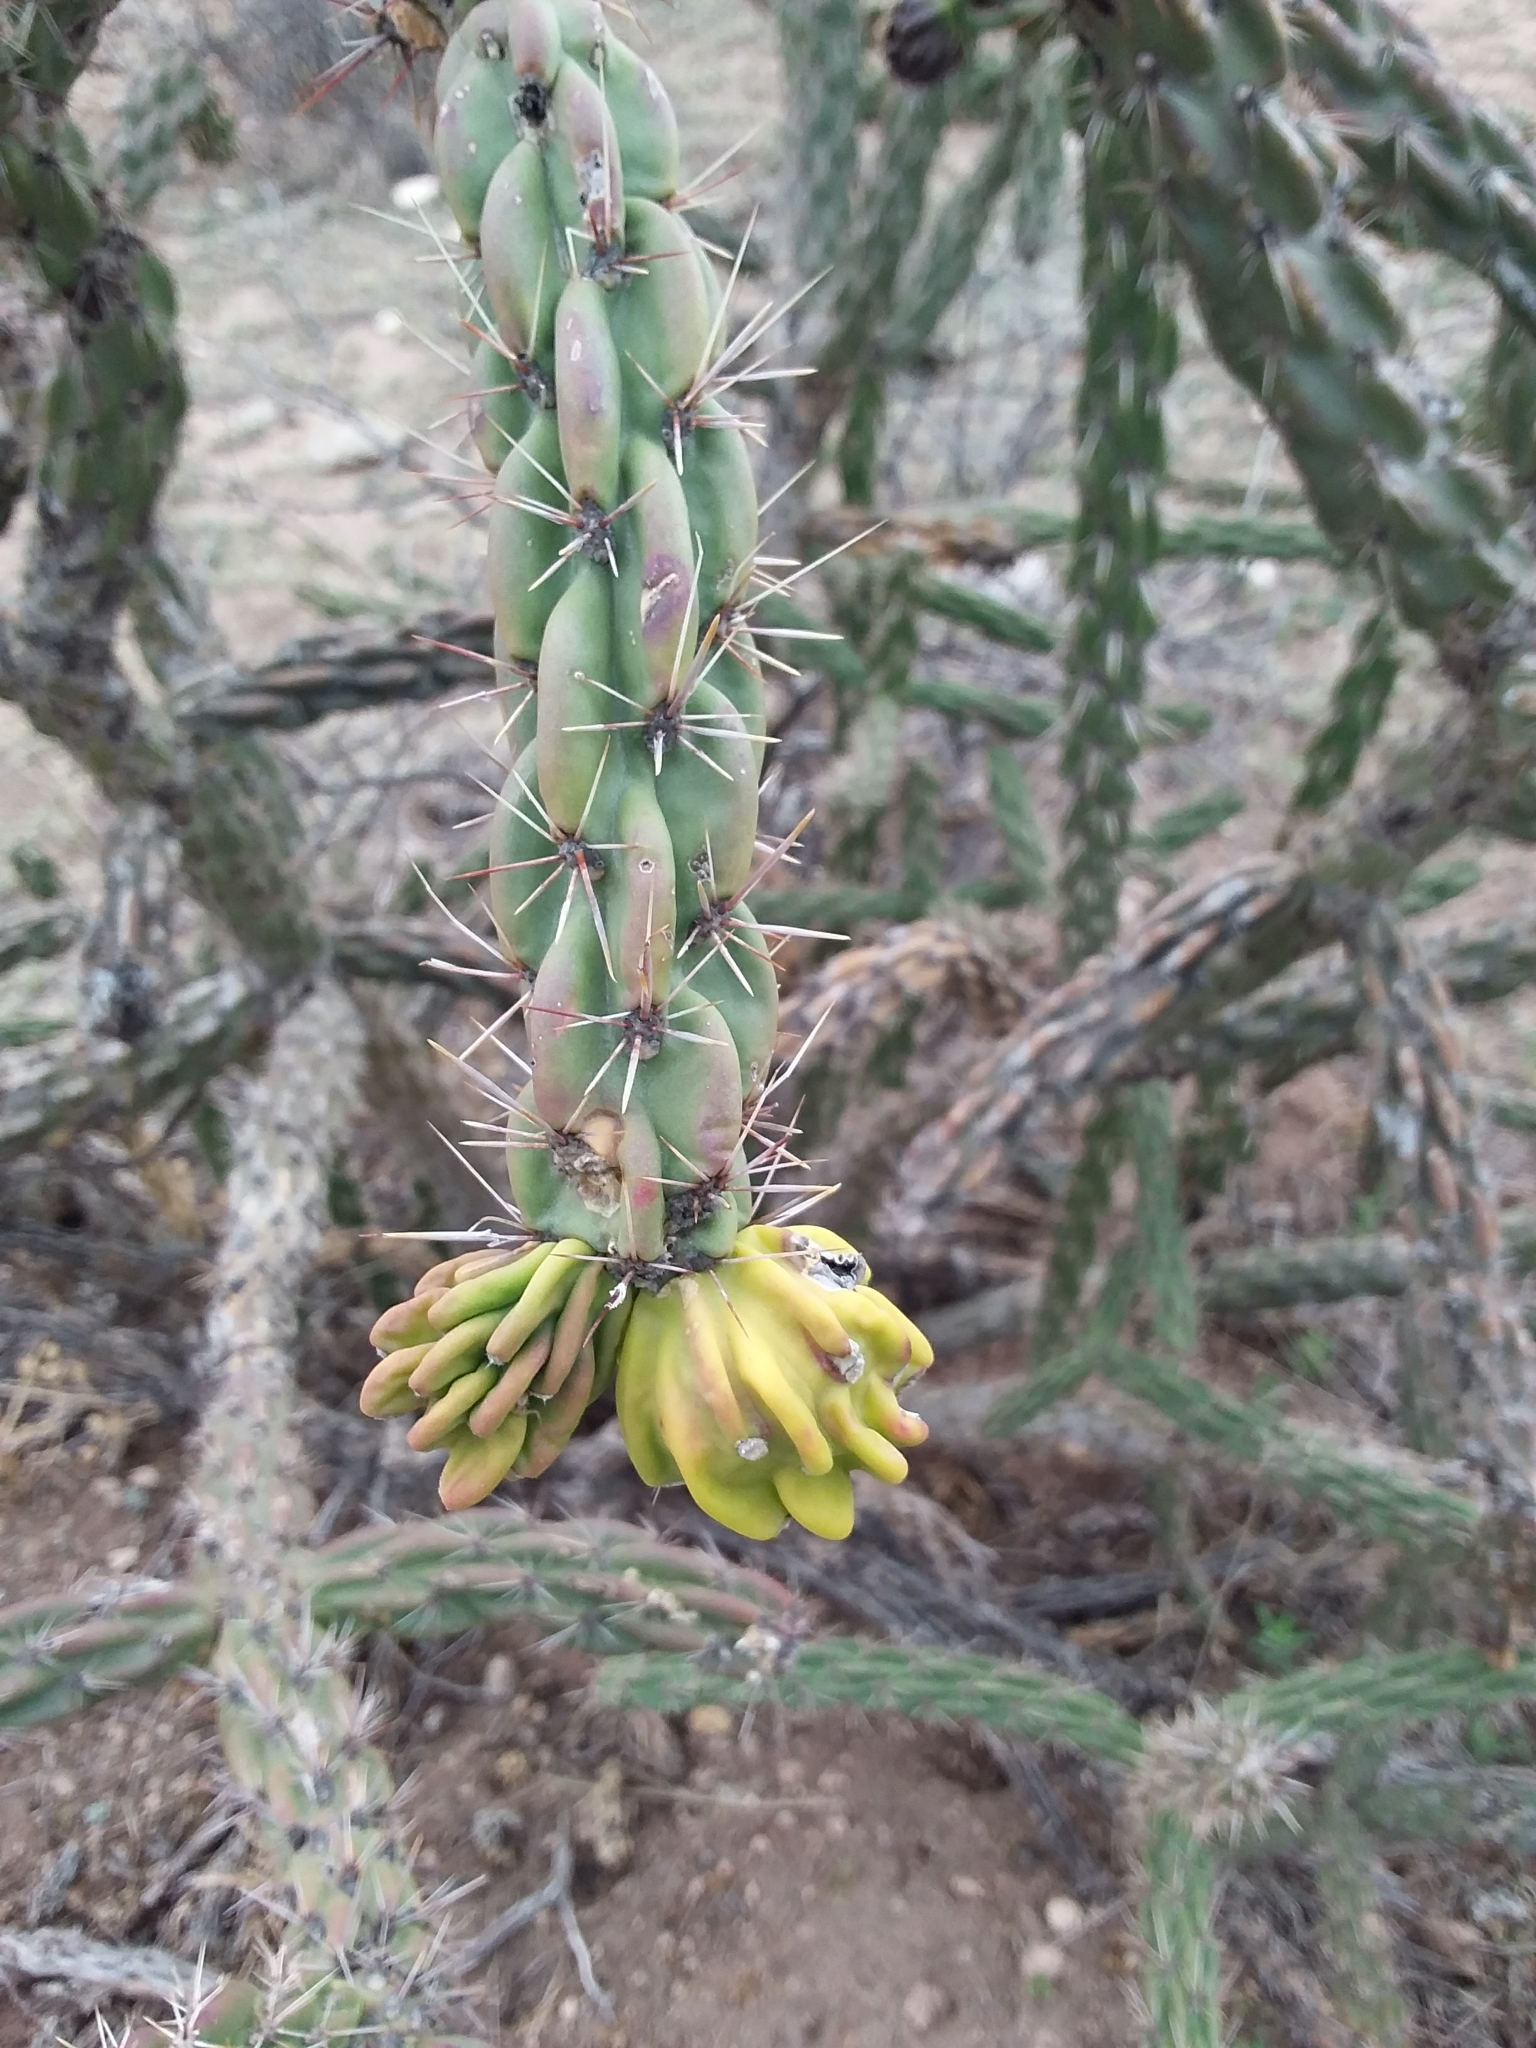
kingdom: Plantae
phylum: Tracheophyta
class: Magnoliopsida
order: Caryophyllales
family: Cactaceae
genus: Cylindropuntia
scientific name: Cylindropuntia imbricata
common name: Candelabrum cactus
